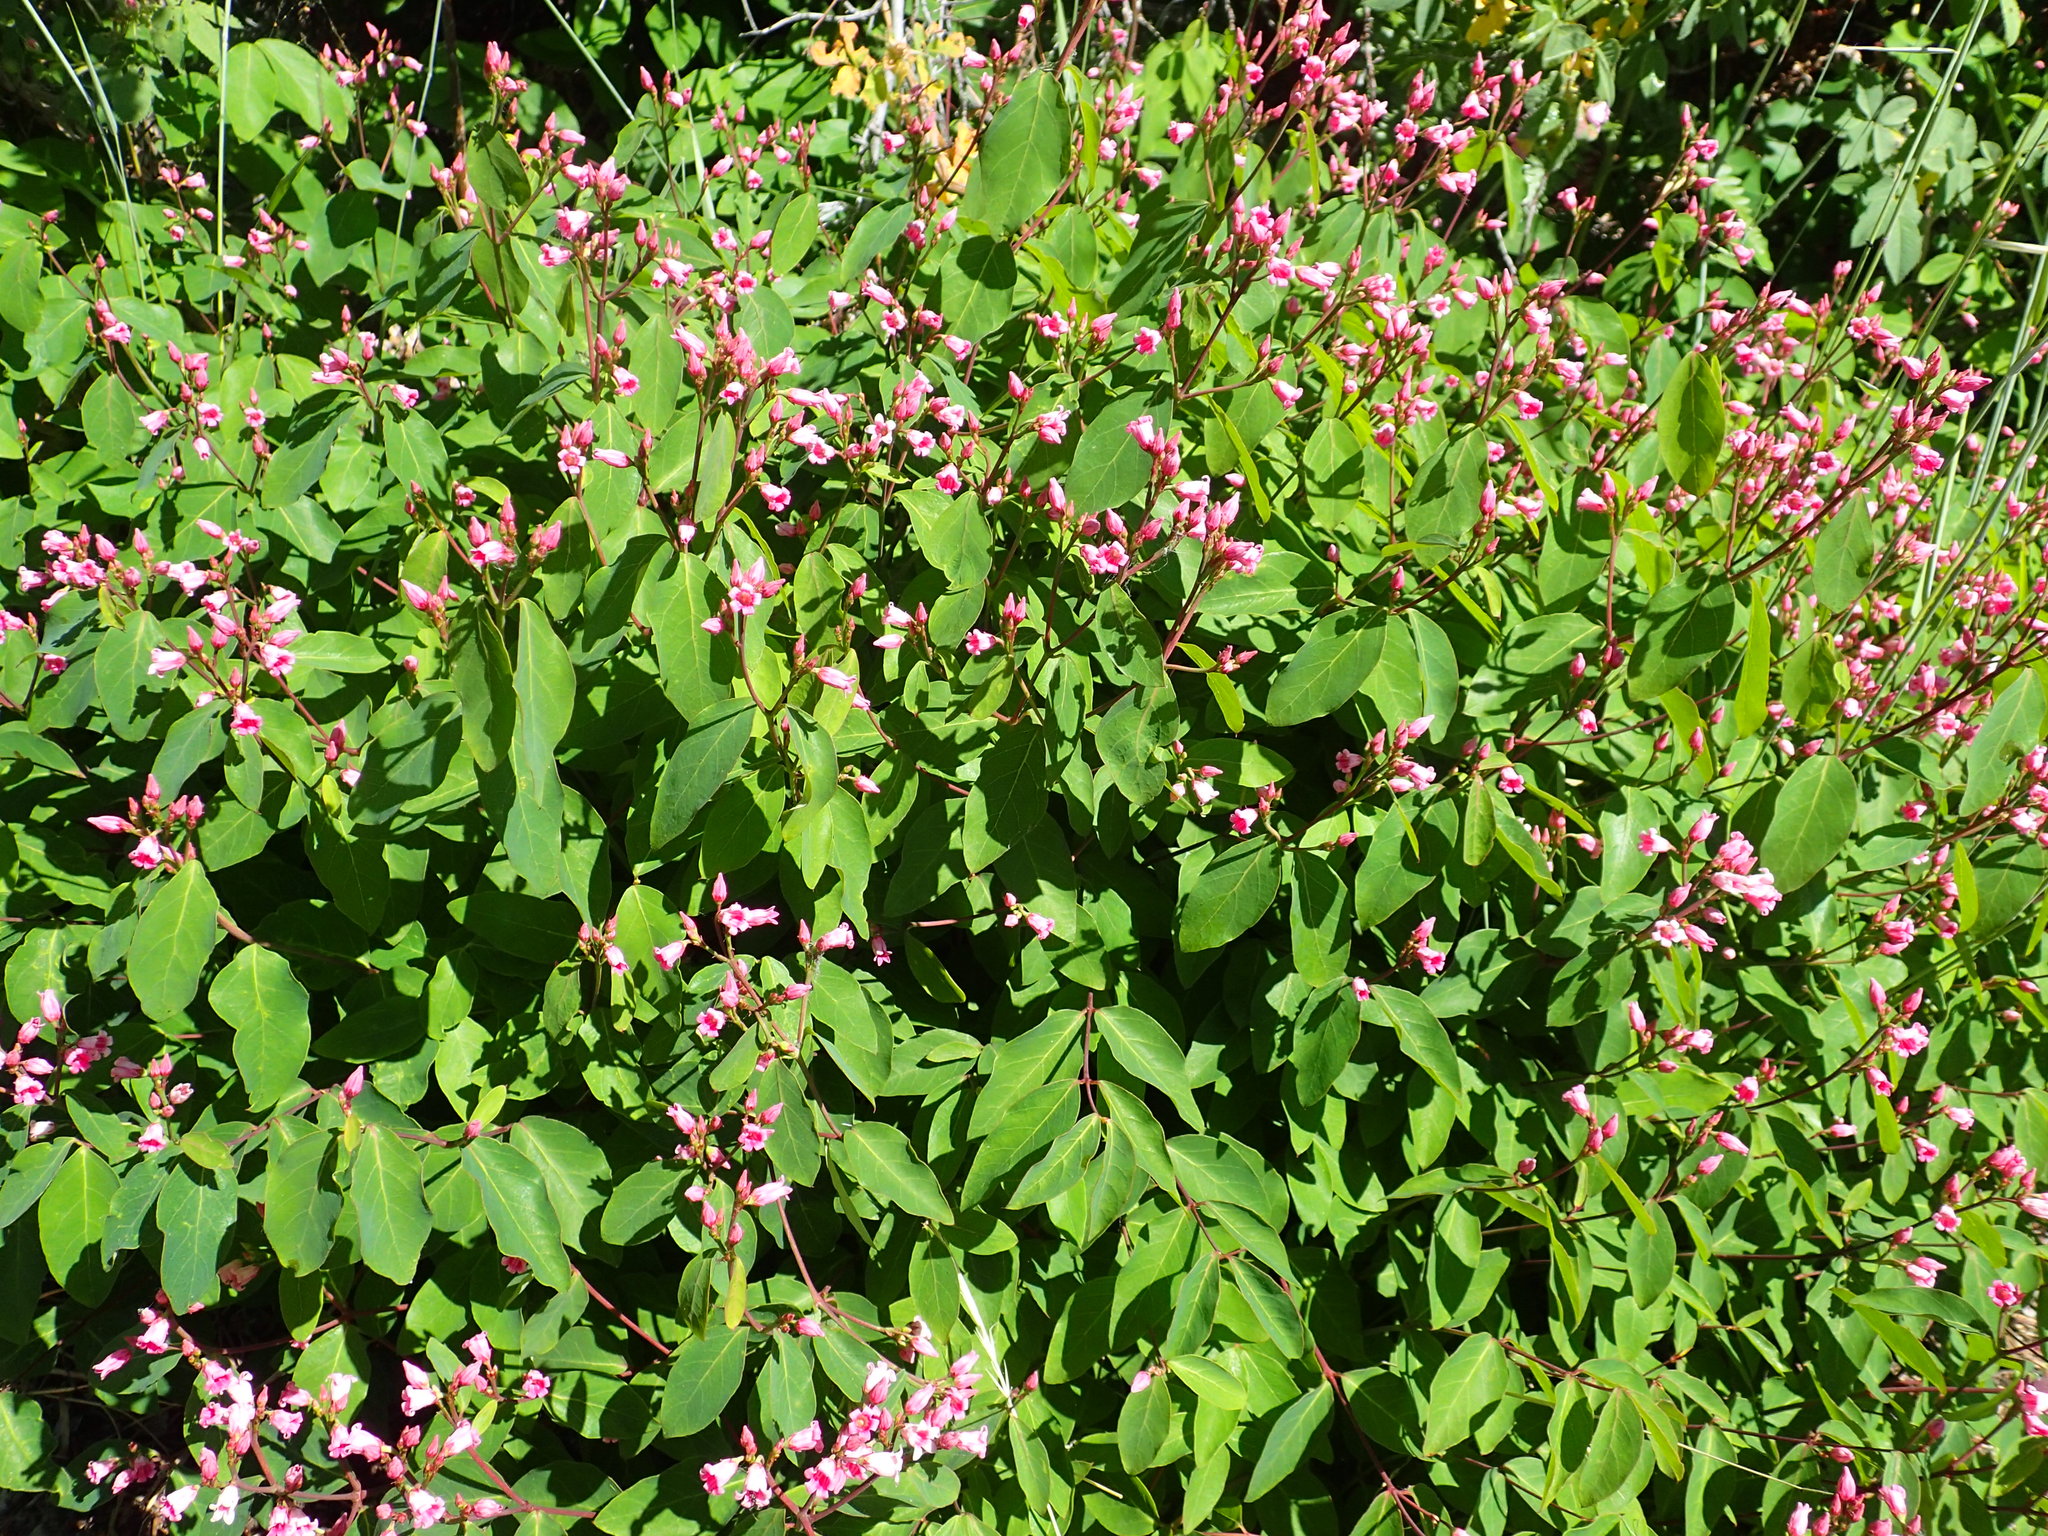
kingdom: Plantae
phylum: Tracheophyta
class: Magnoliopsida
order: Gentianales
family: Apocynaceae
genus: Apocynum
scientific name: Apocynum androsaemifolium
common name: Spreading dogbane
